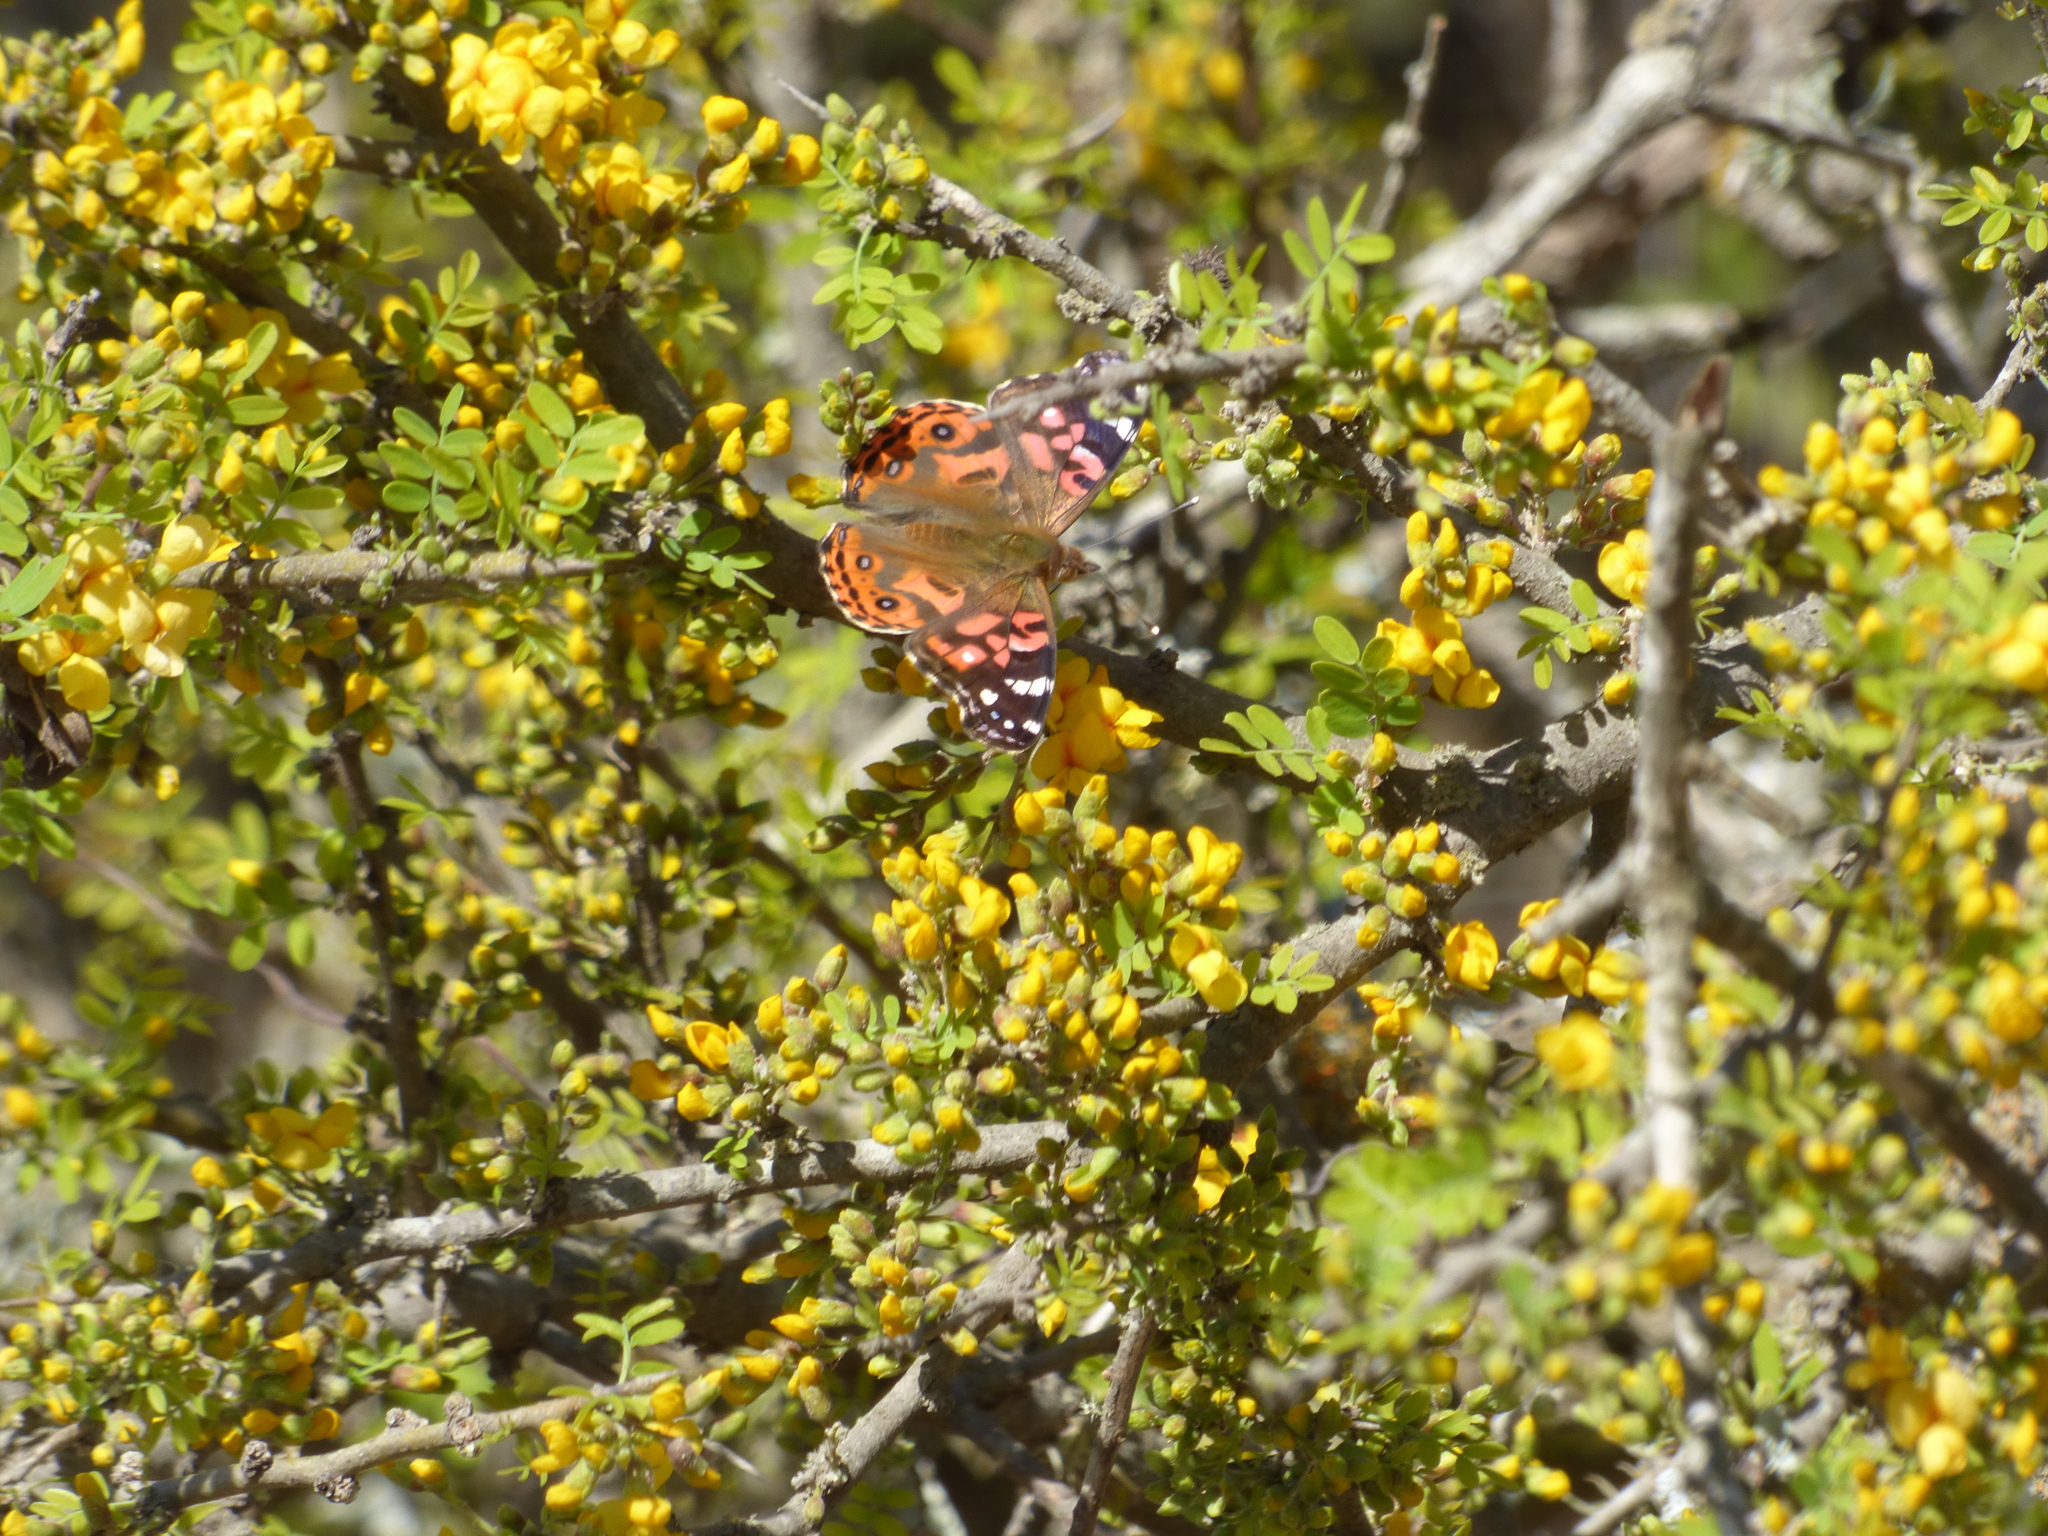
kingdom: Animalia
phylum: Arthropoda
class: Insecta
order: Lepidoptera
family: Nymphalidae
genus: Vanessa
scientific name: Vanessa braziliensis
